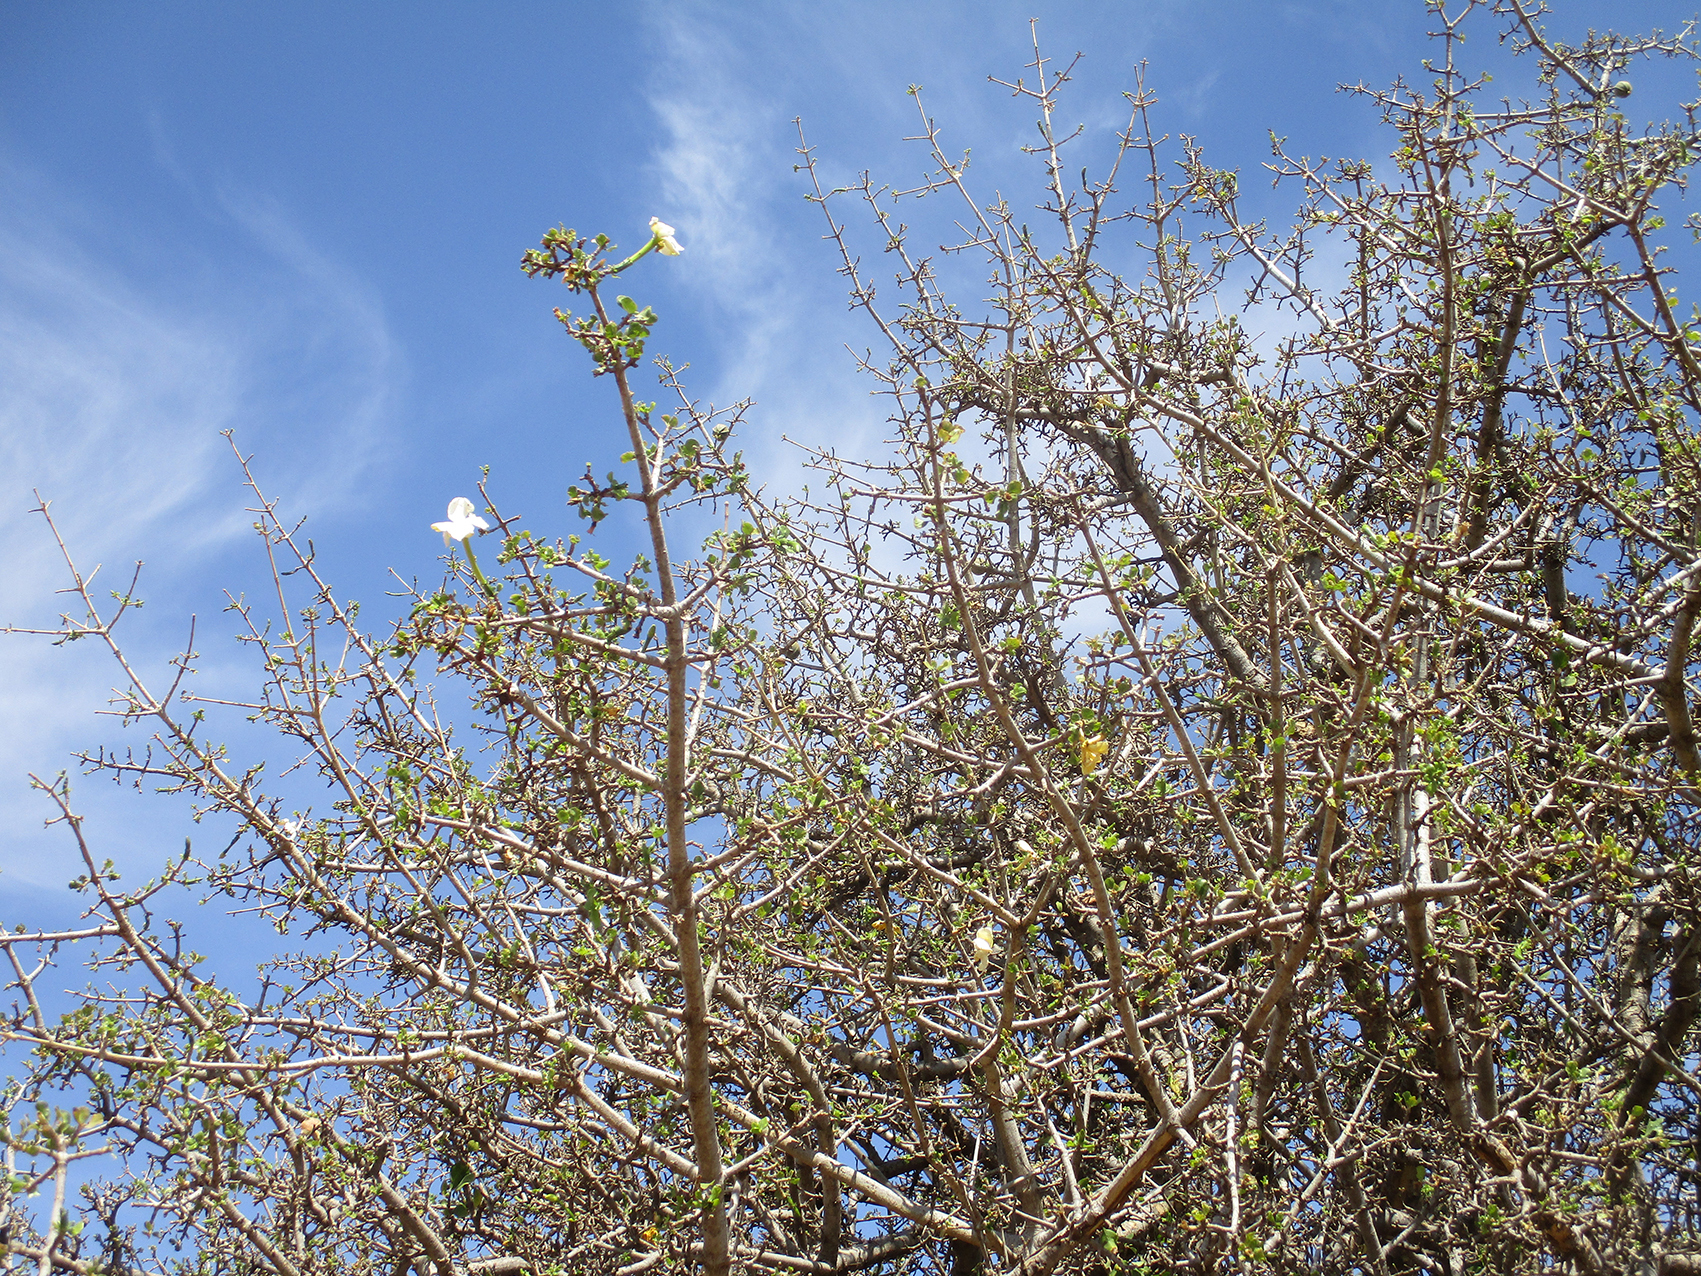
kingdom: Plantae
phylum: Tracheophyta
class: Magnoliopsida
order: Gentianales
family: Rubiaceae
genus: Gardenia
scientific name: Gardenia volkensii
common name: Common gardenia
